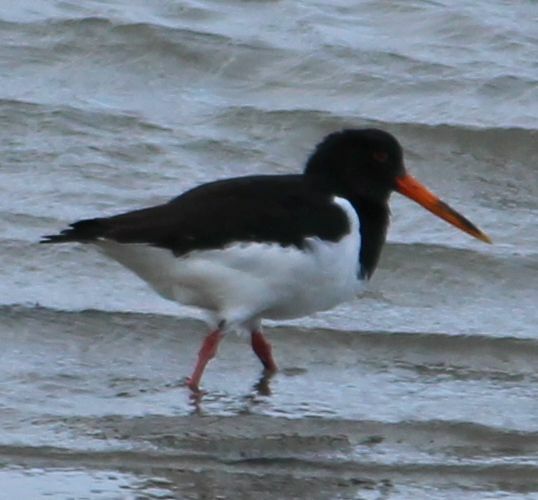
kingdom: Animalia
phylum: Chordata
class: Aves
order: Charadriiformes
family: Haematopodidae
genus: Haematopus
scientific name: Haematopus ostralegus
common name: Eurasian oystercatcher
